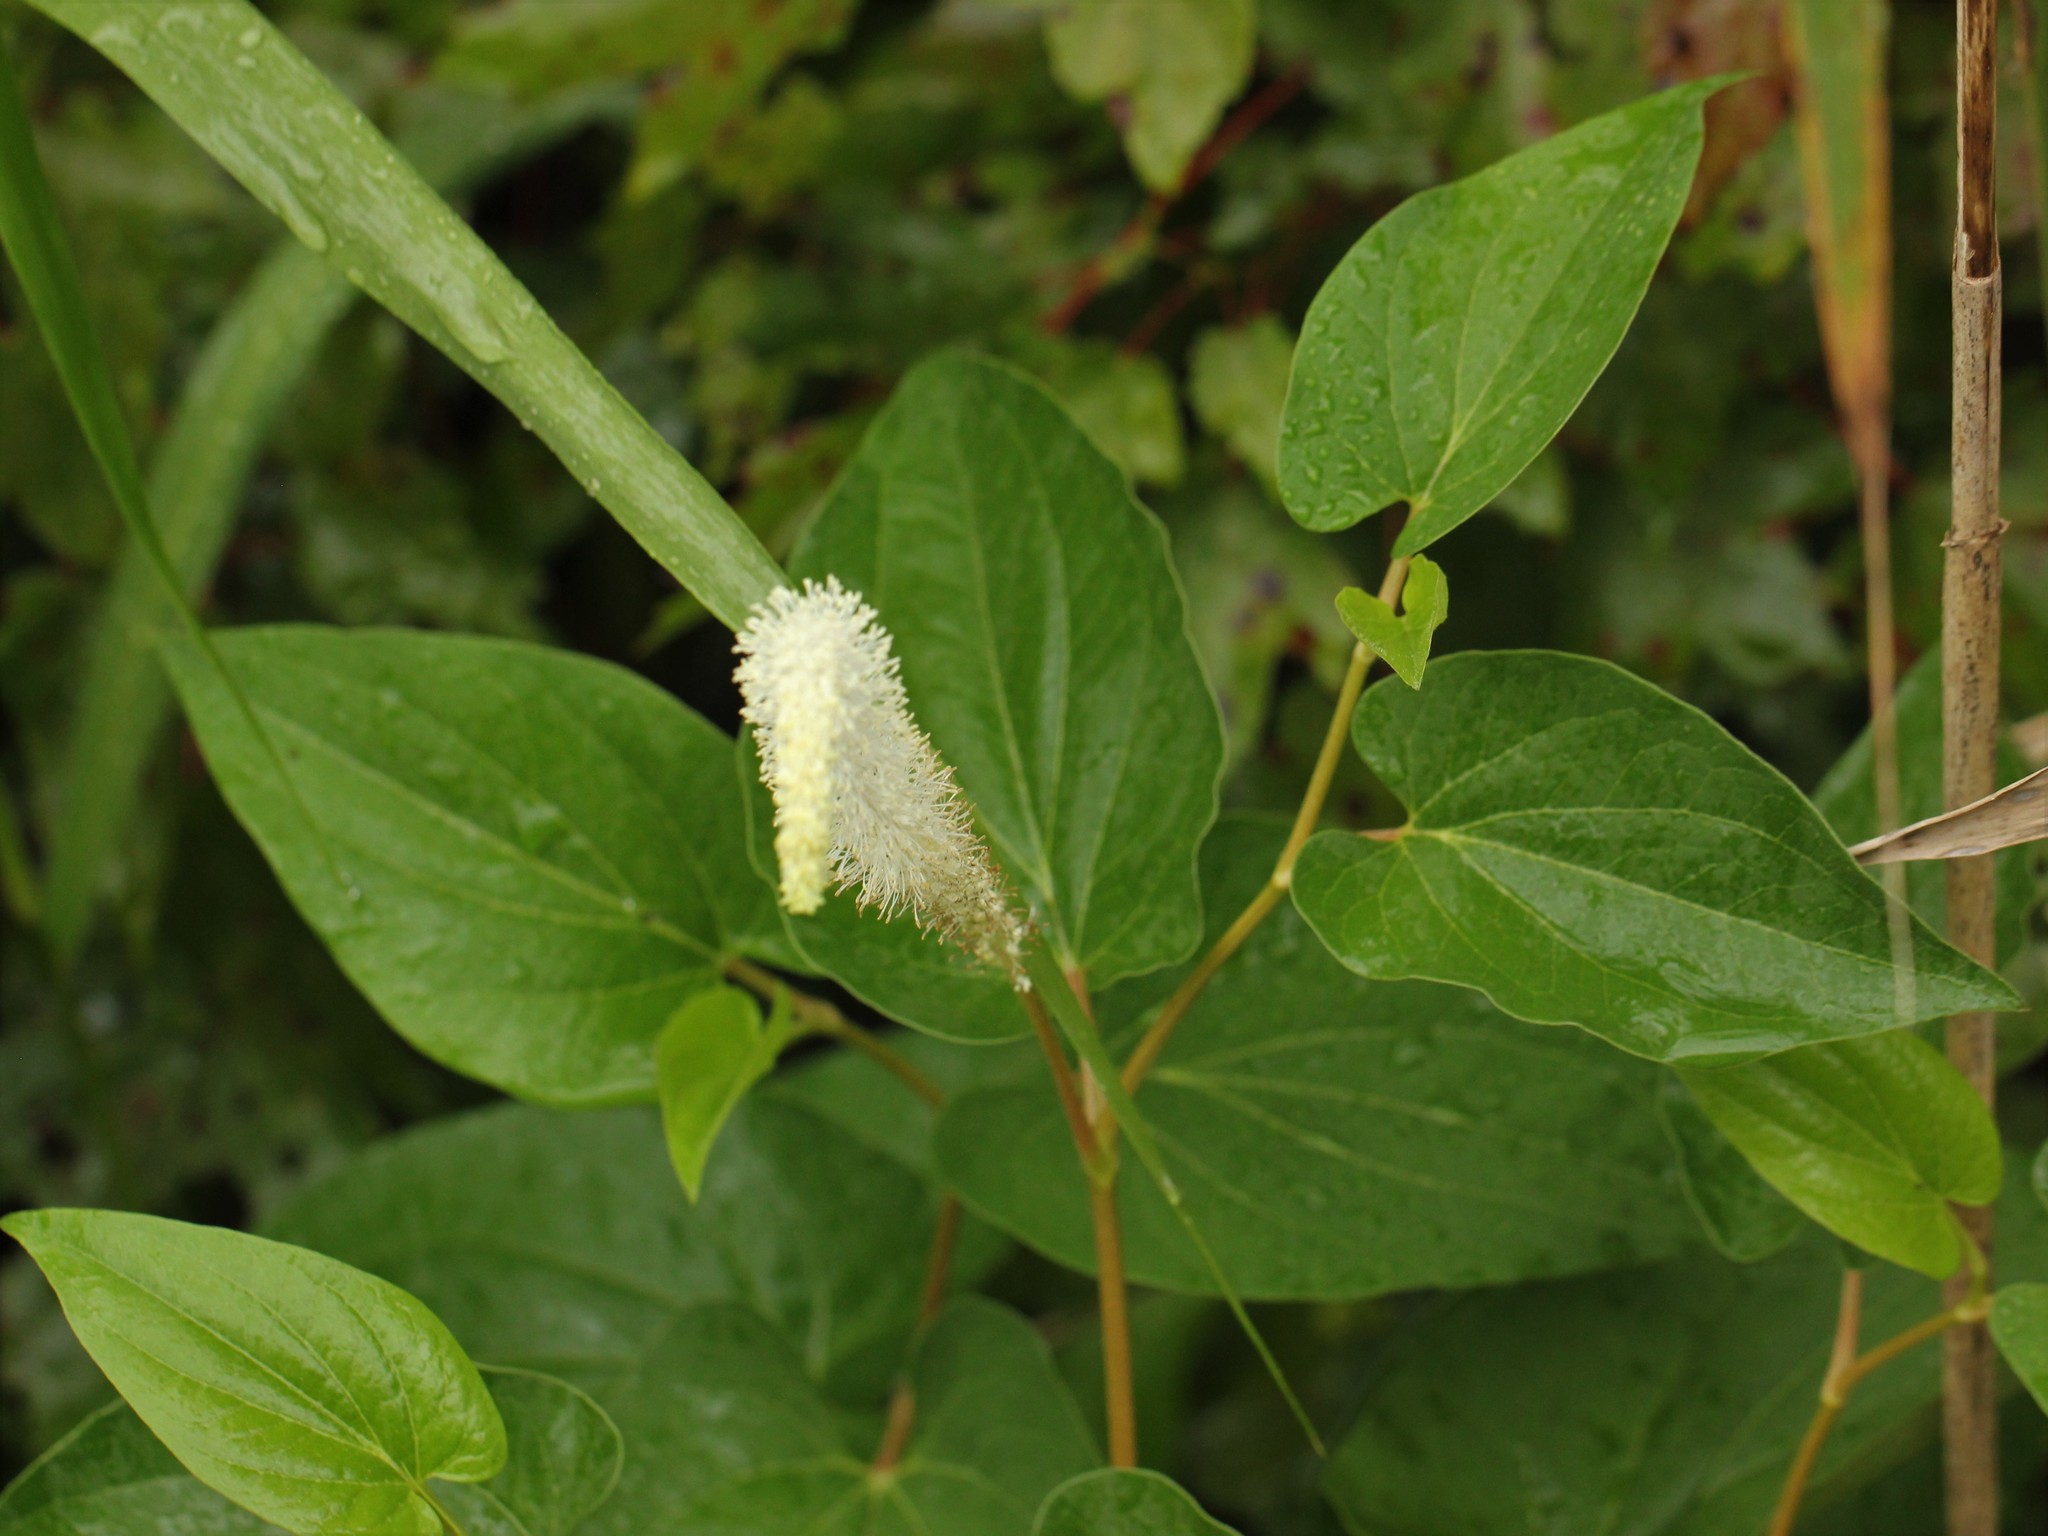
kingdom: Plantae
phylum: Tracheophyta
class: Magnoliopsida
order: Piperales
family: Saururaceae
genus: Saururus
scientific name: Saururus cernuus
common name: Lizard's-tail
